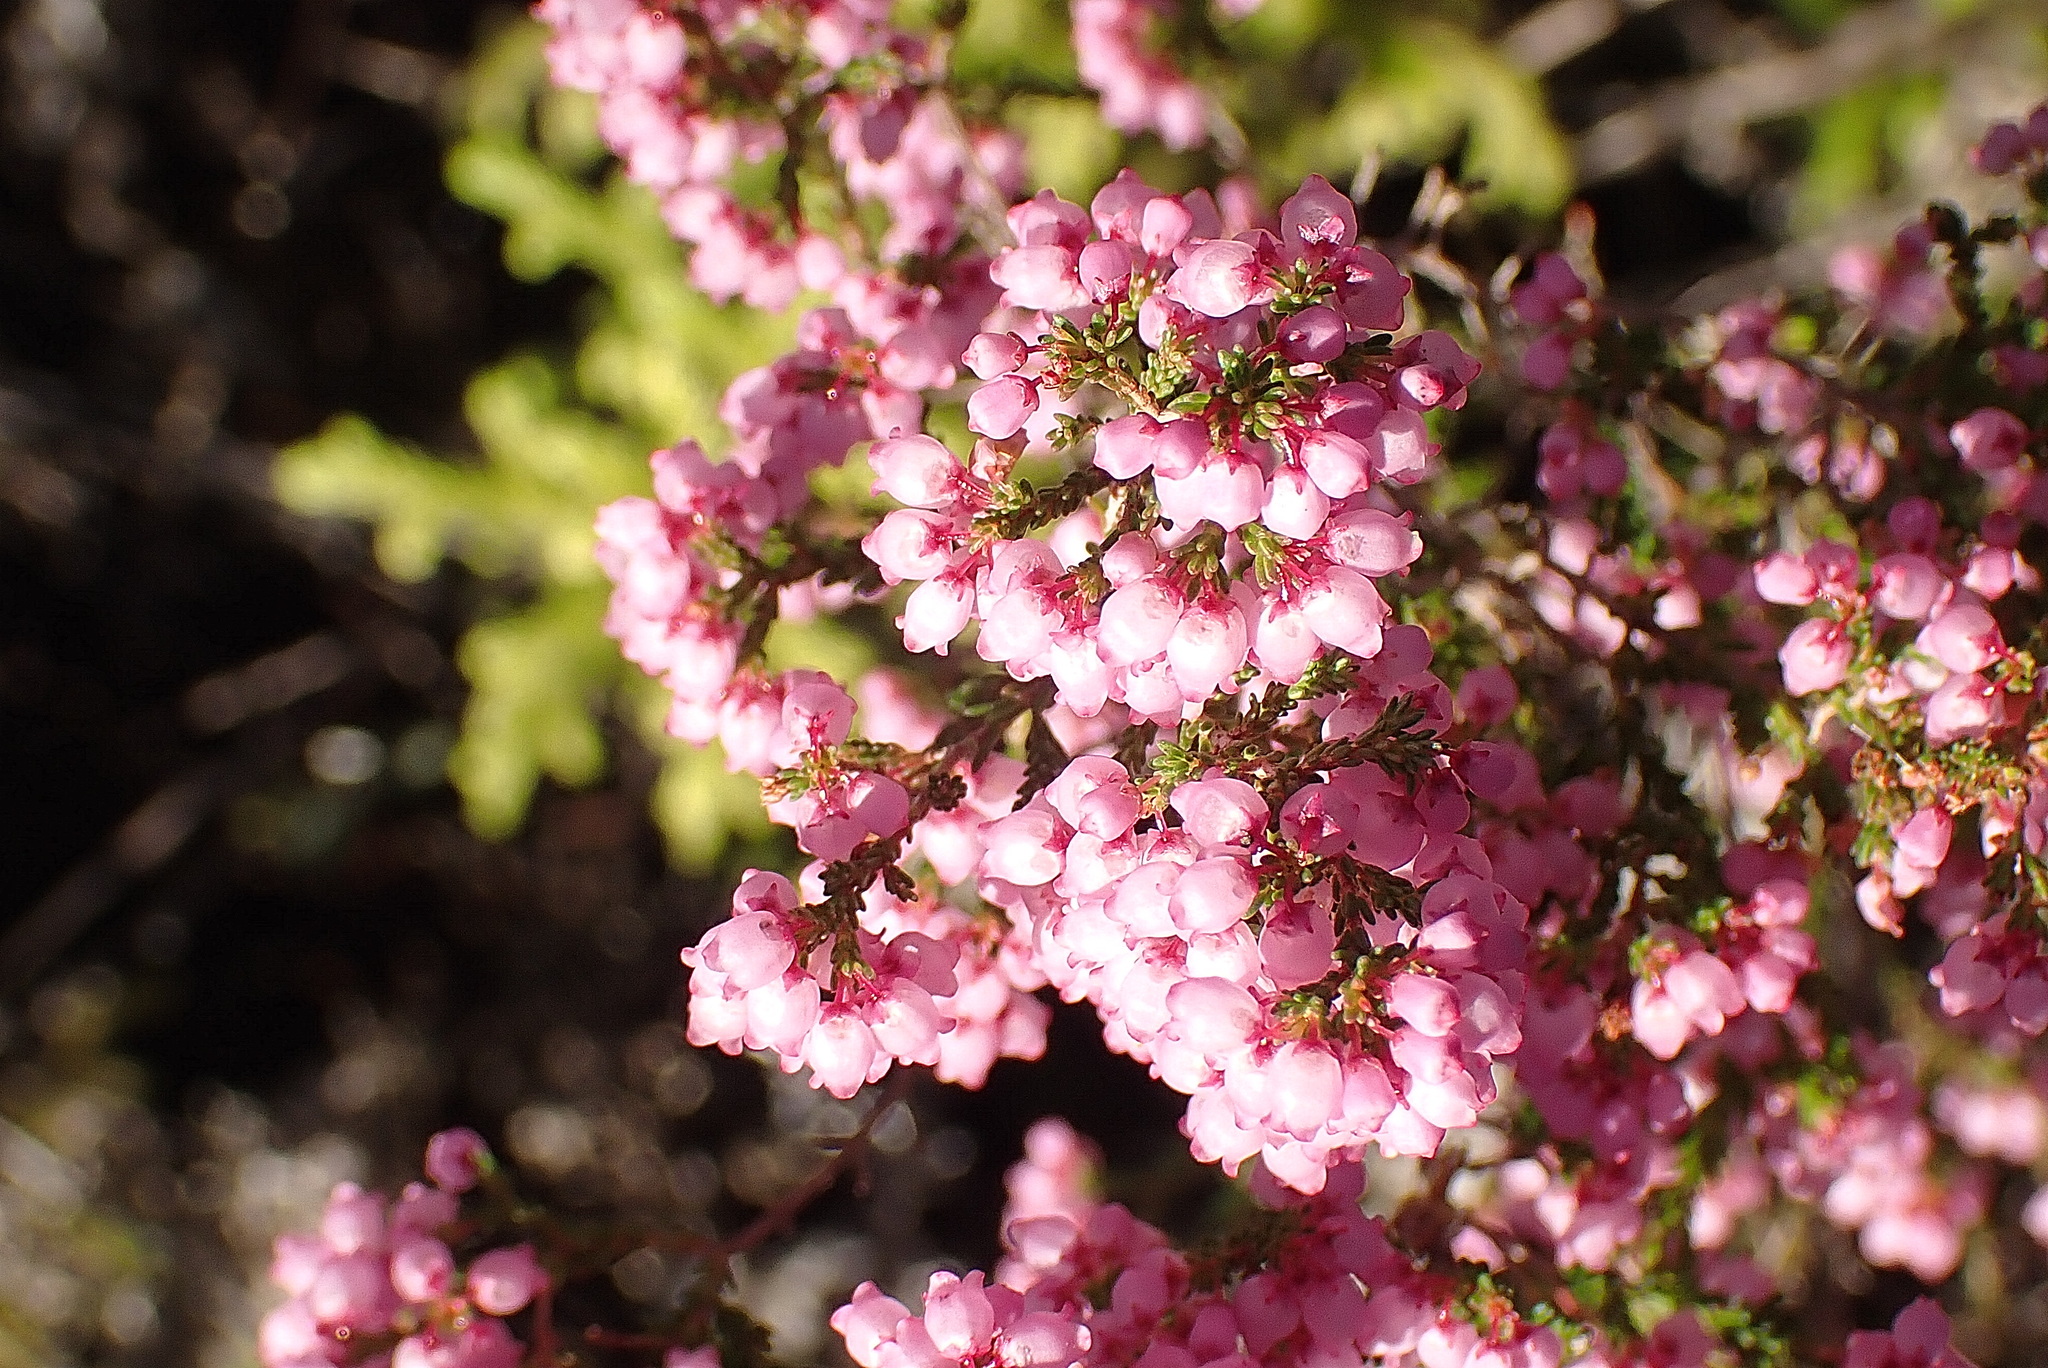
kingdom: Plantae
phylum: Tracheophyta
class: Magnoliopsida
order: Ericales
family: Ericaceae
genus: Erica
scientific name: Erica quadrangularis
